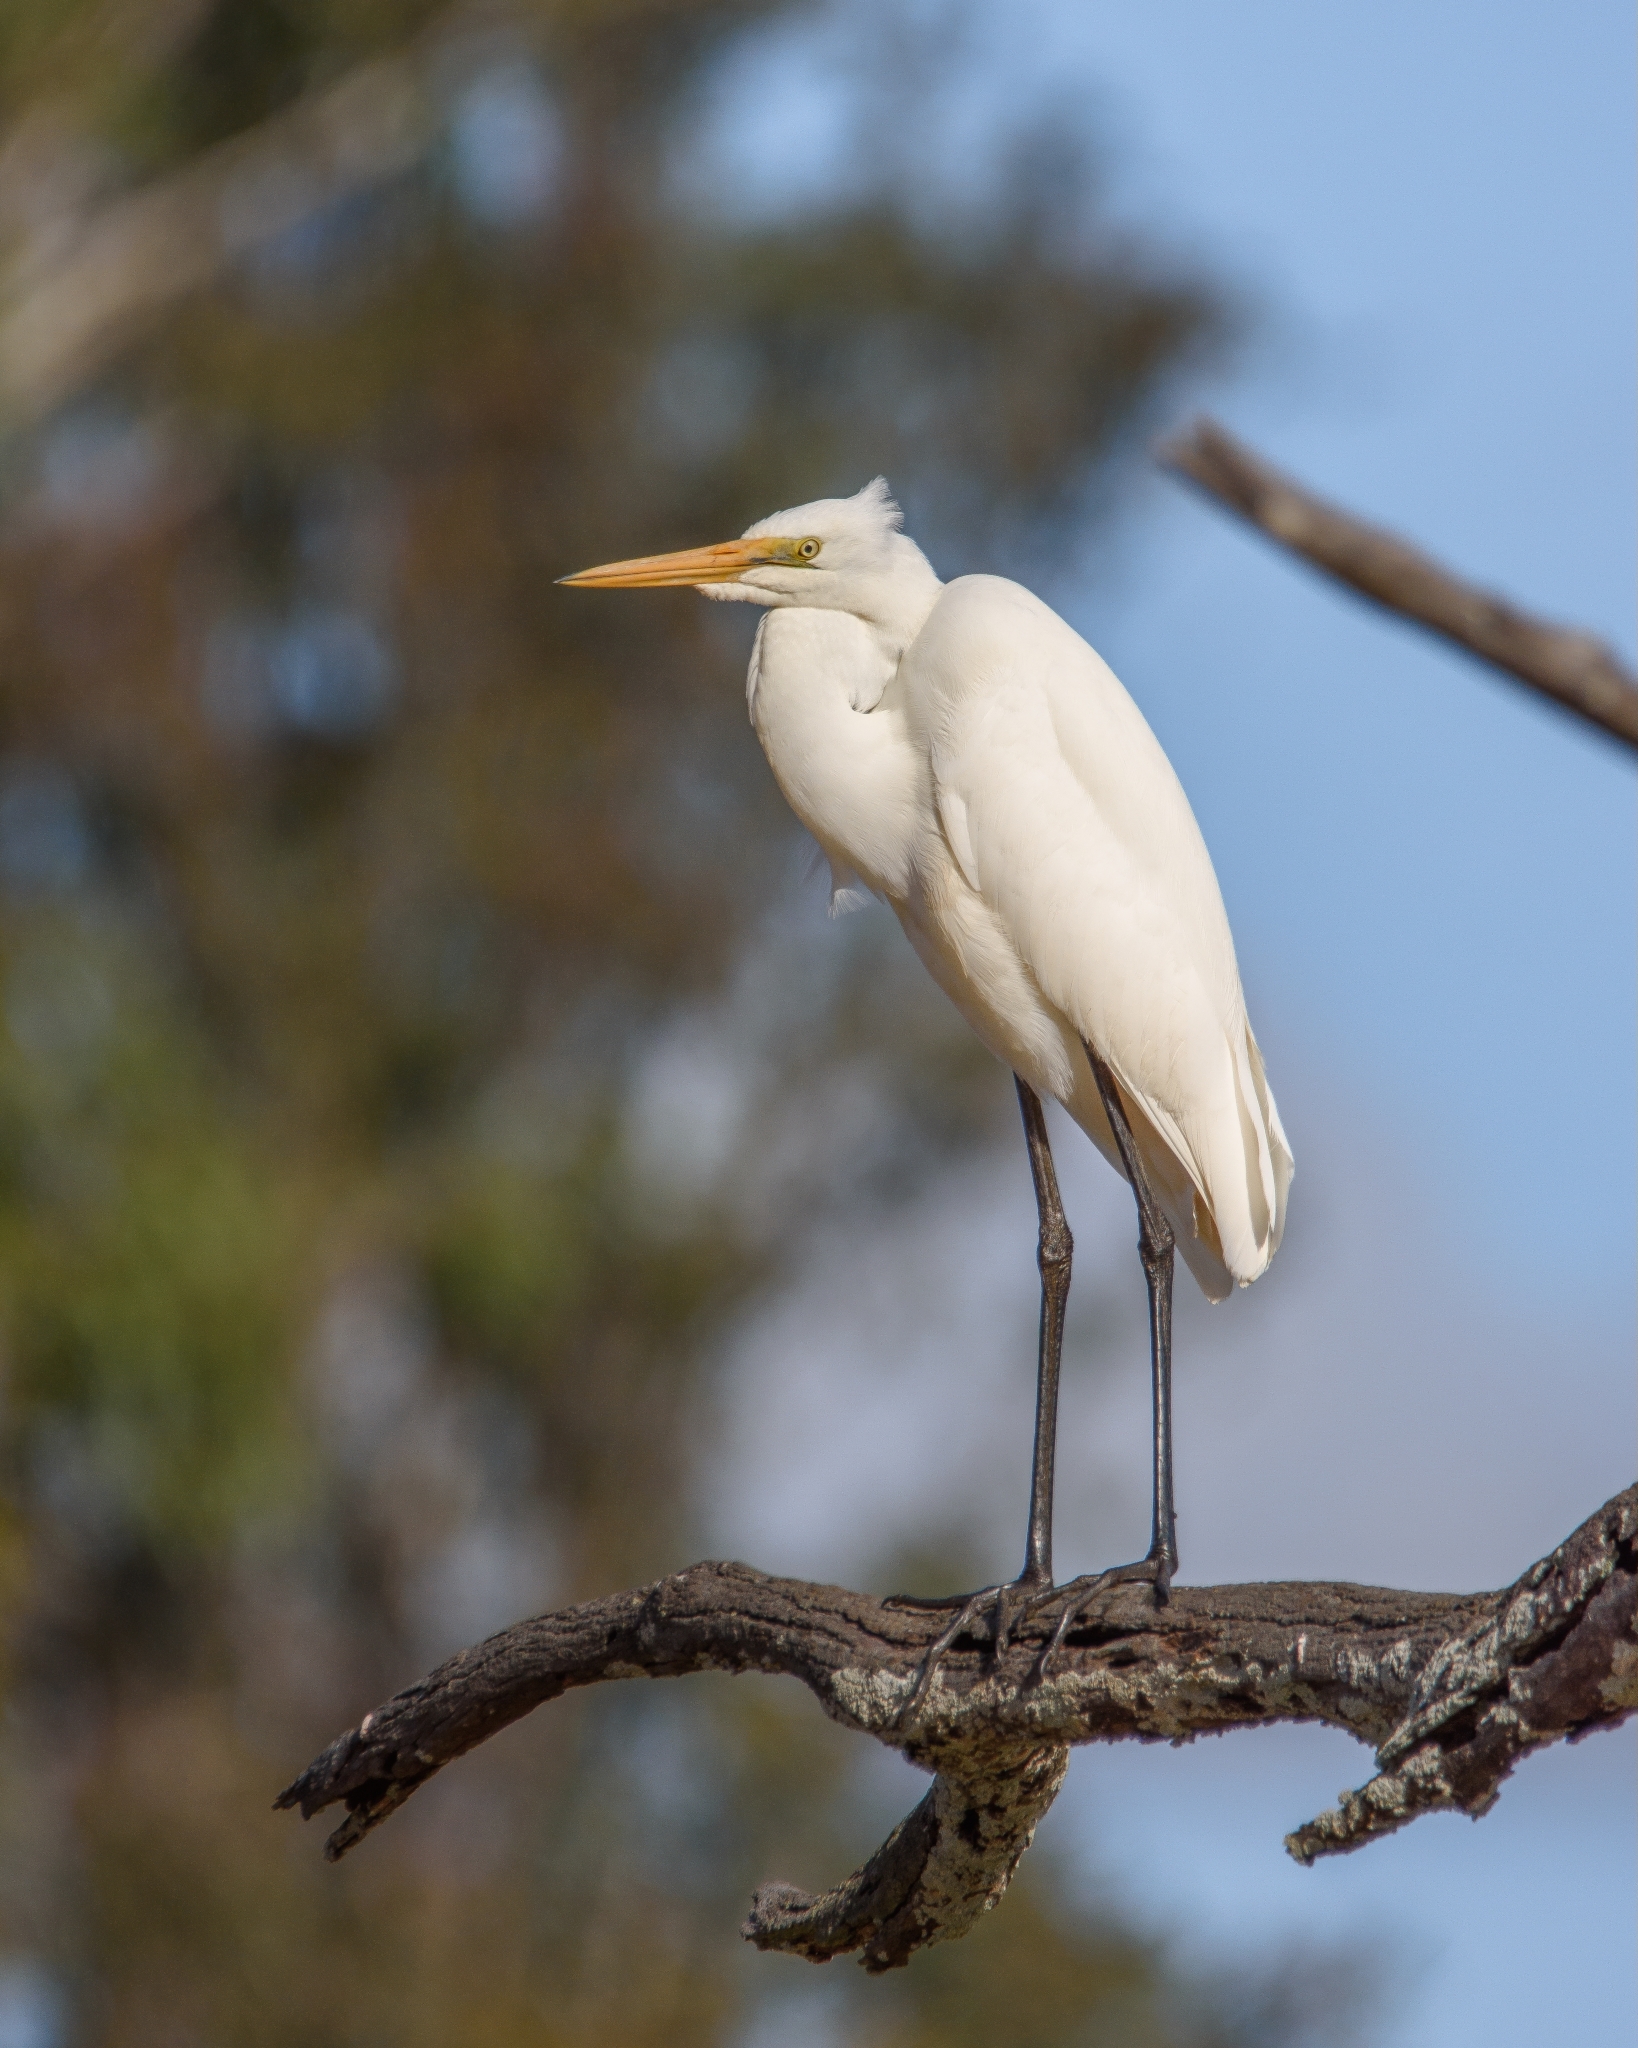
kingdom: Animalia
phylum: Chordata
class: Aves
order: Pelecaniformes
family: Ardeidae
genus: Ardea
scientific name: Ardea modesta
